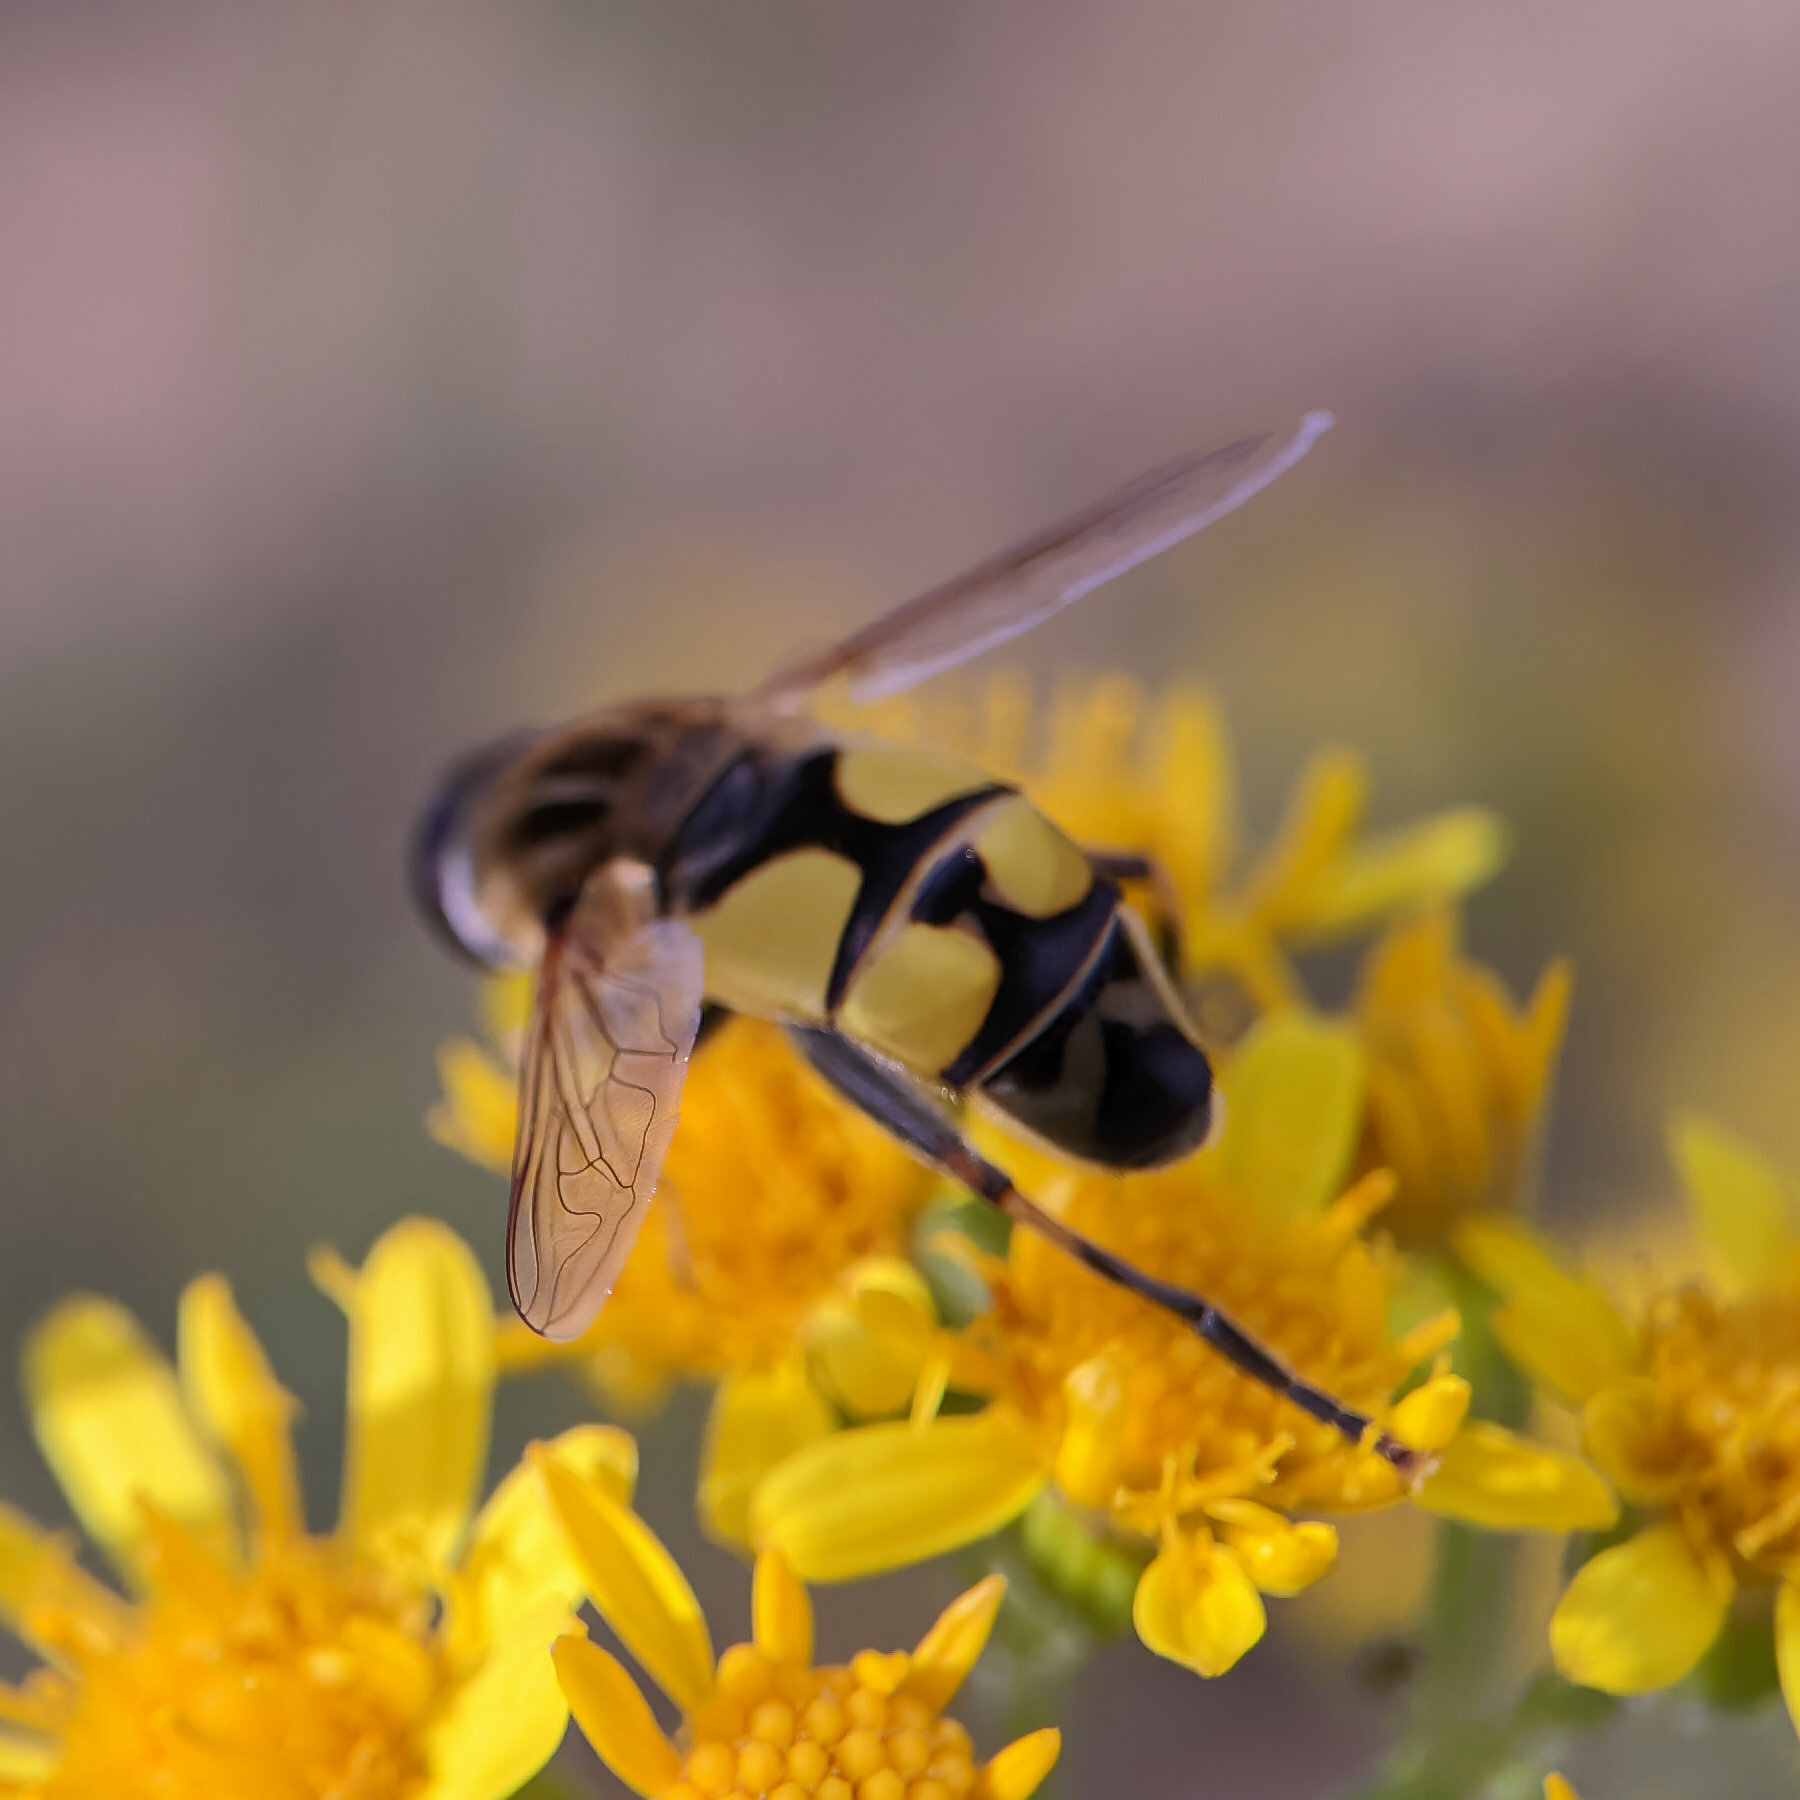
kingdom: Animalia
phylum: Arthropoda
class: Insecta
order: Diptera
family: Syrphidae
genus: Helophilus
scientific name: Helophilus trivittatus
